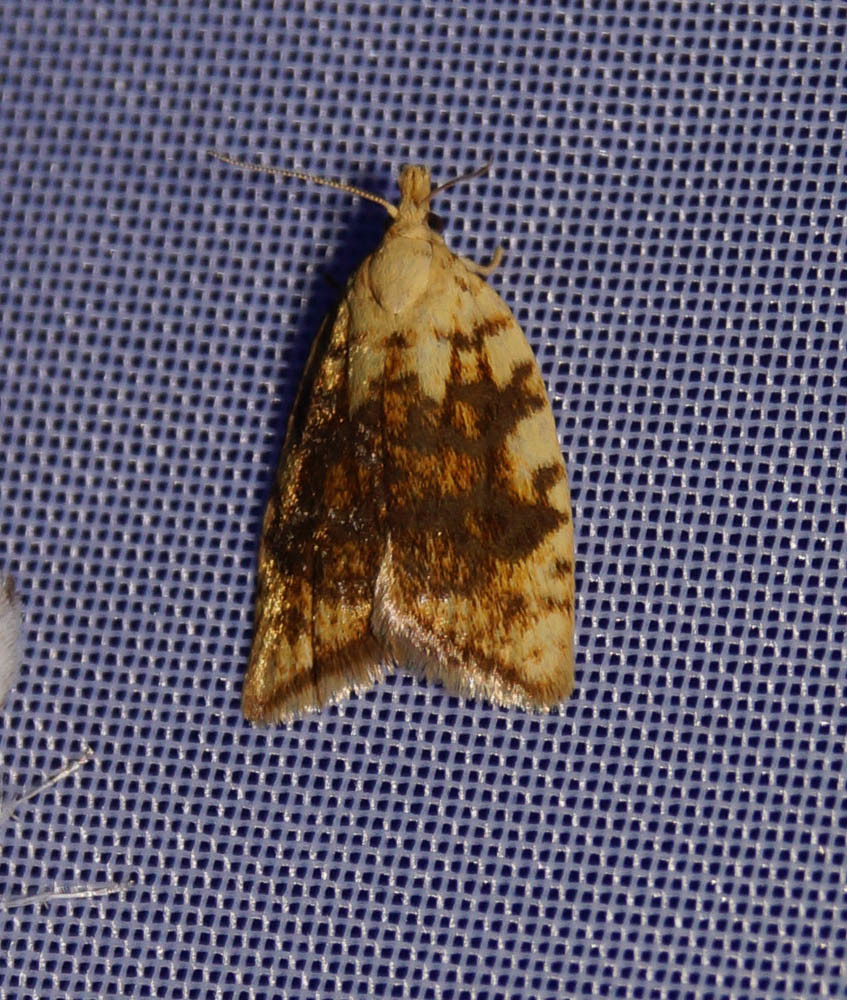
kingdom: Animalia
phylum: Arthropoda
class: Insecta
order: Lepidoptera
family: Tortricidae
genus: Aleimma
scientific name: Aleimma loeflingiana
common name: Yellow oak button
